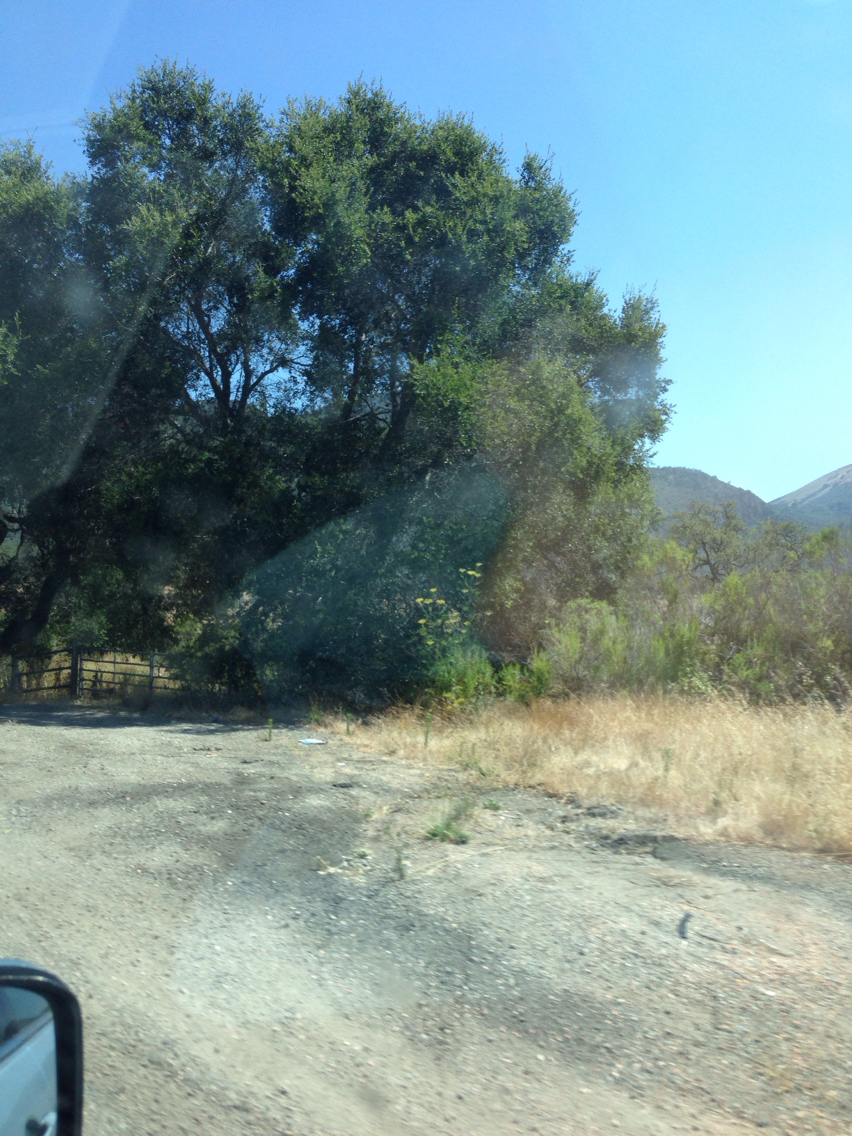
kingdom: Plantae
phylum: Tracheophyta
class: Magnoliopsida
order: Apiales
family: Apiaceae
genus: Foeniculum
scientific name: Foeniculum vulgare
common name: Fennel
